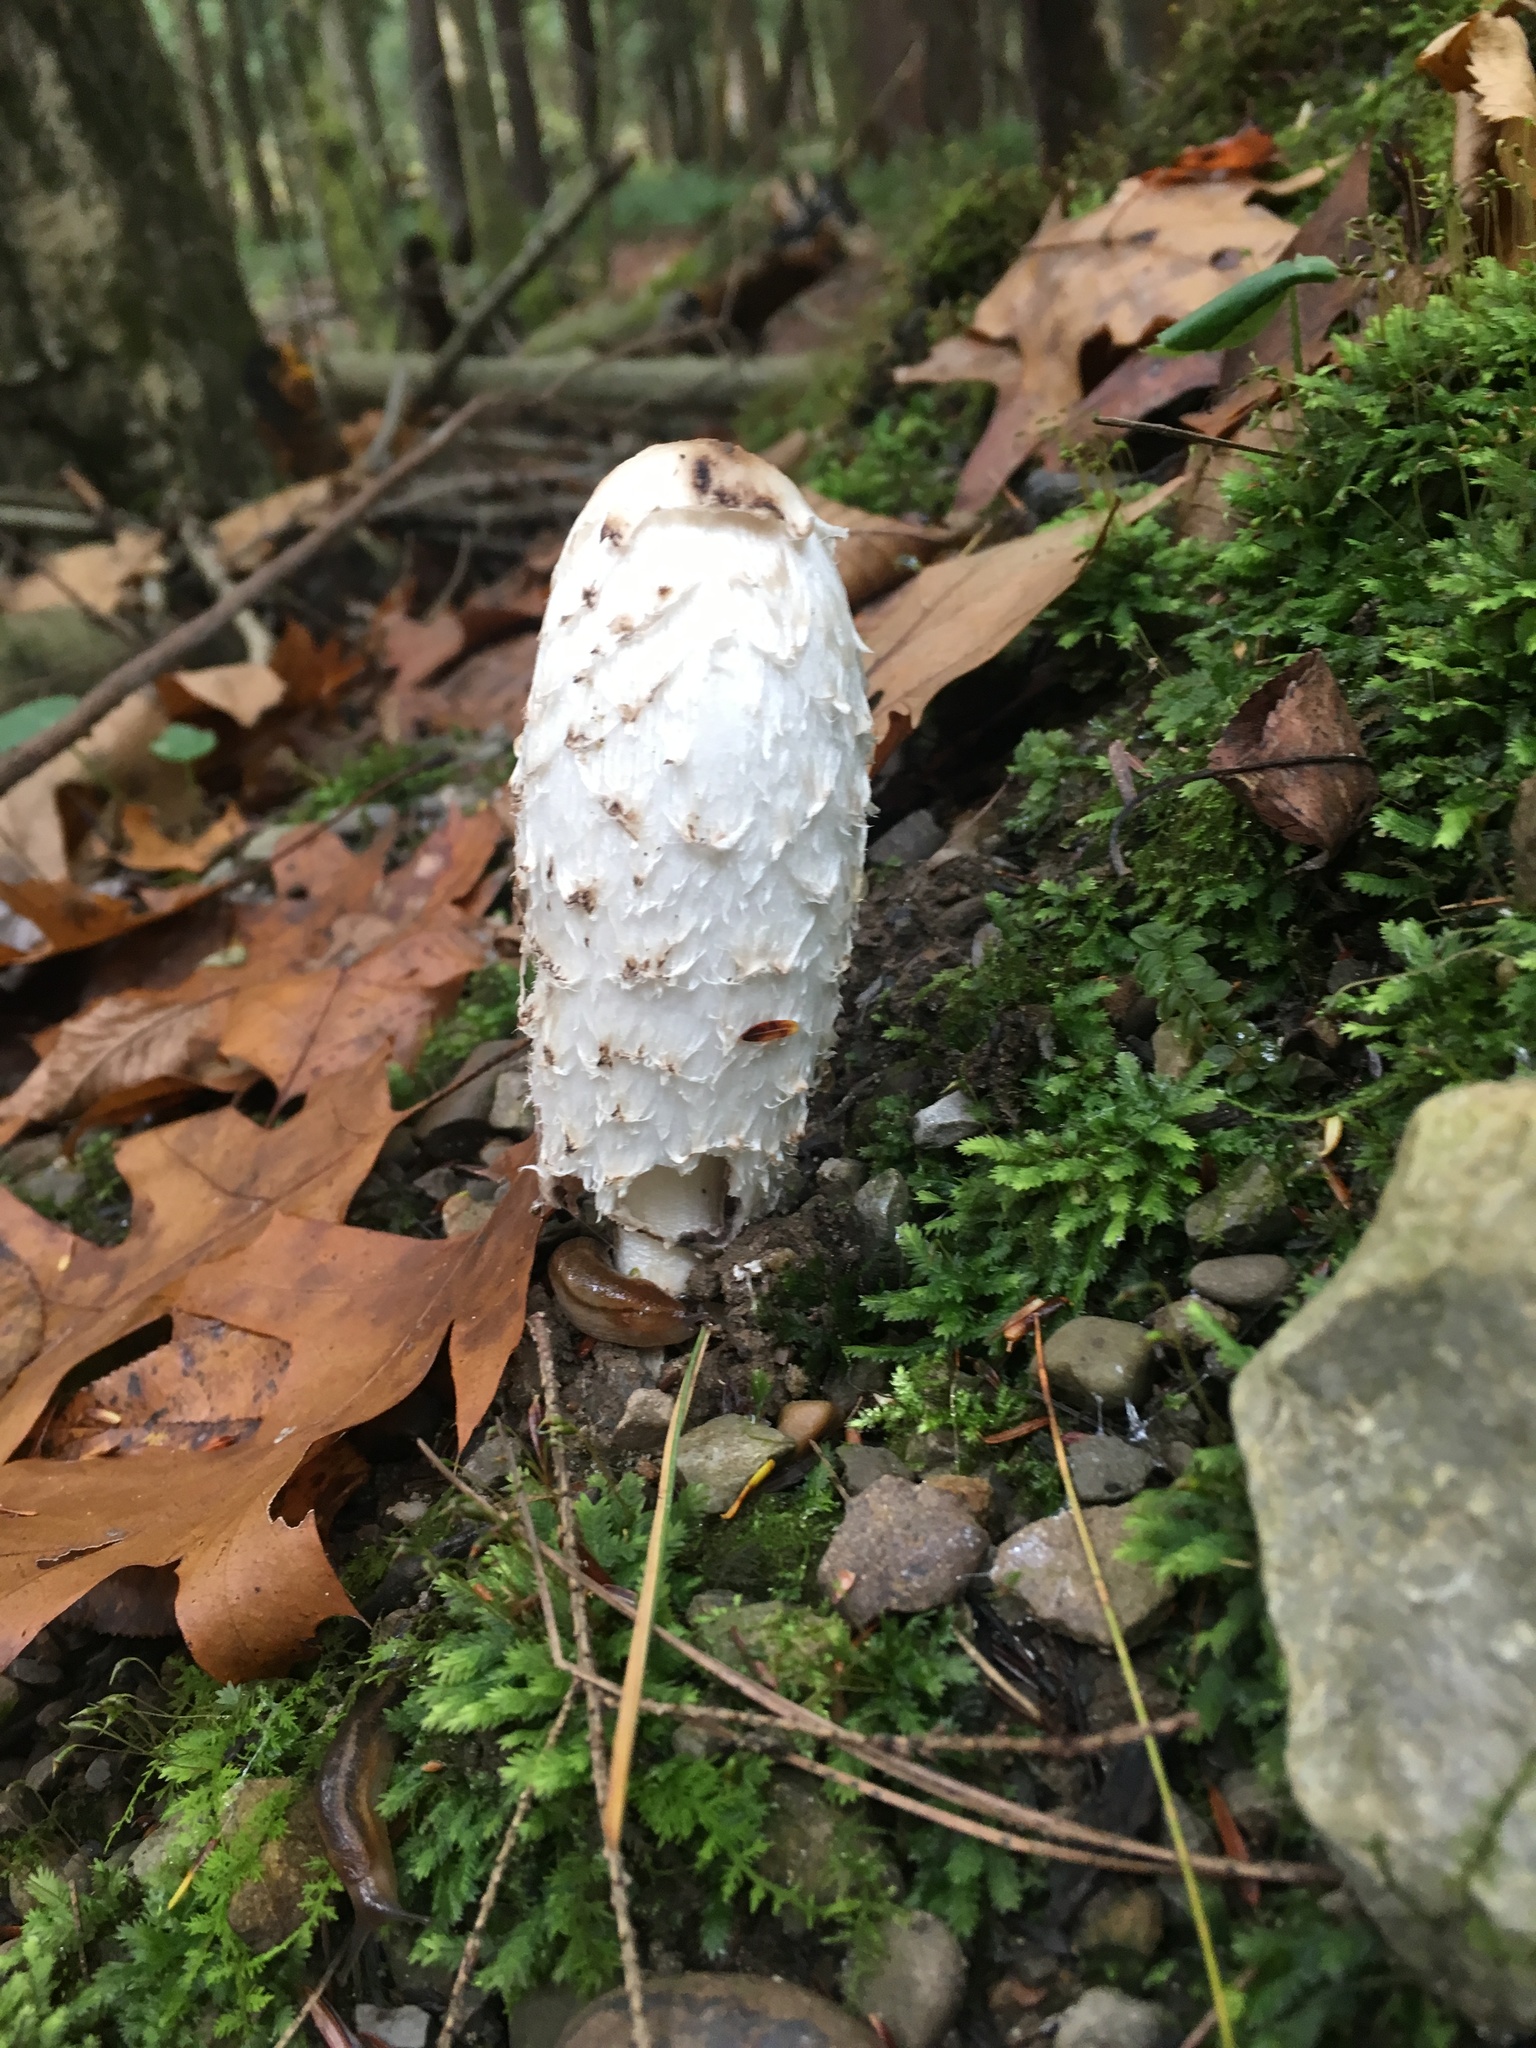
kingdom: Fungi
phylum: Basidiomycota
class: Agaricomycetes
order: Agaricales
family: Agaricaceae
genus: Coprinus
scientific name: Coprinus comatus
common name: Lawyer's wig
